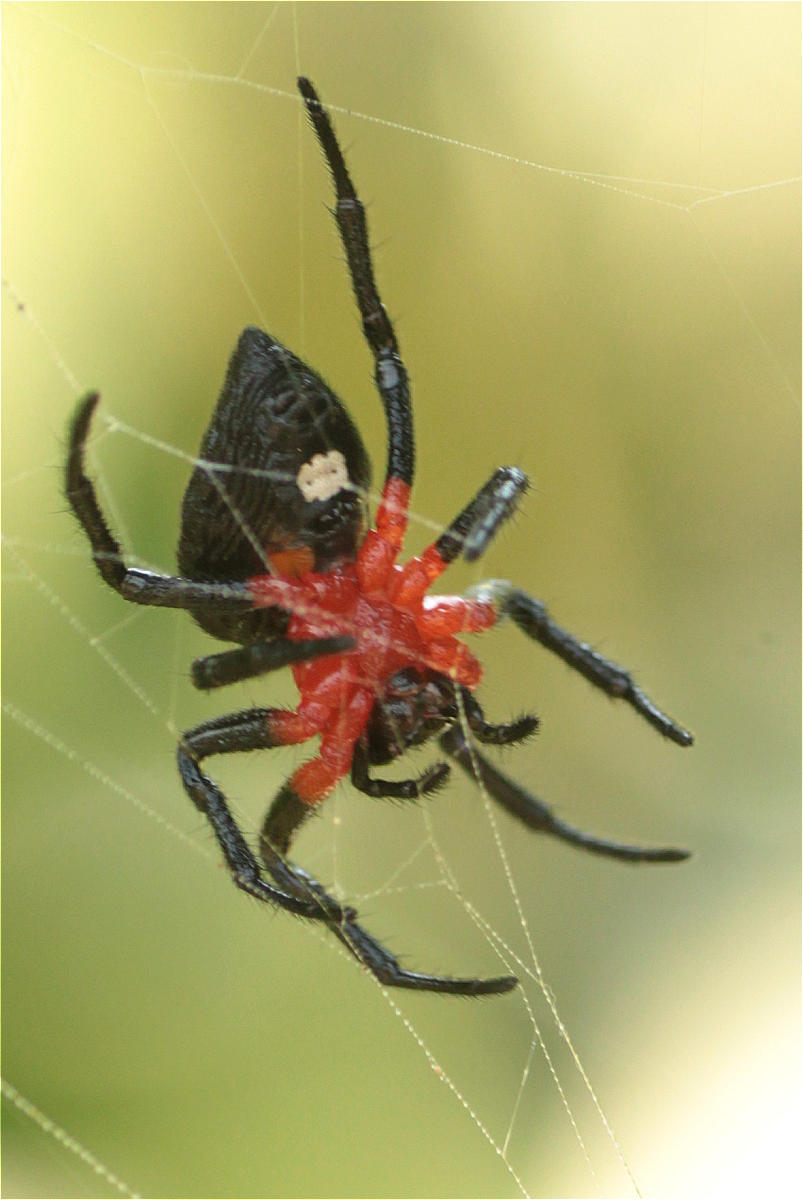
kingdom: Animalia
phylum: Arthropoda
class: Arachnida
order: Araneae
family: Araneidae
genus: Alpaida
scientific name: Alpaida acuta
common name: Orb weavers
